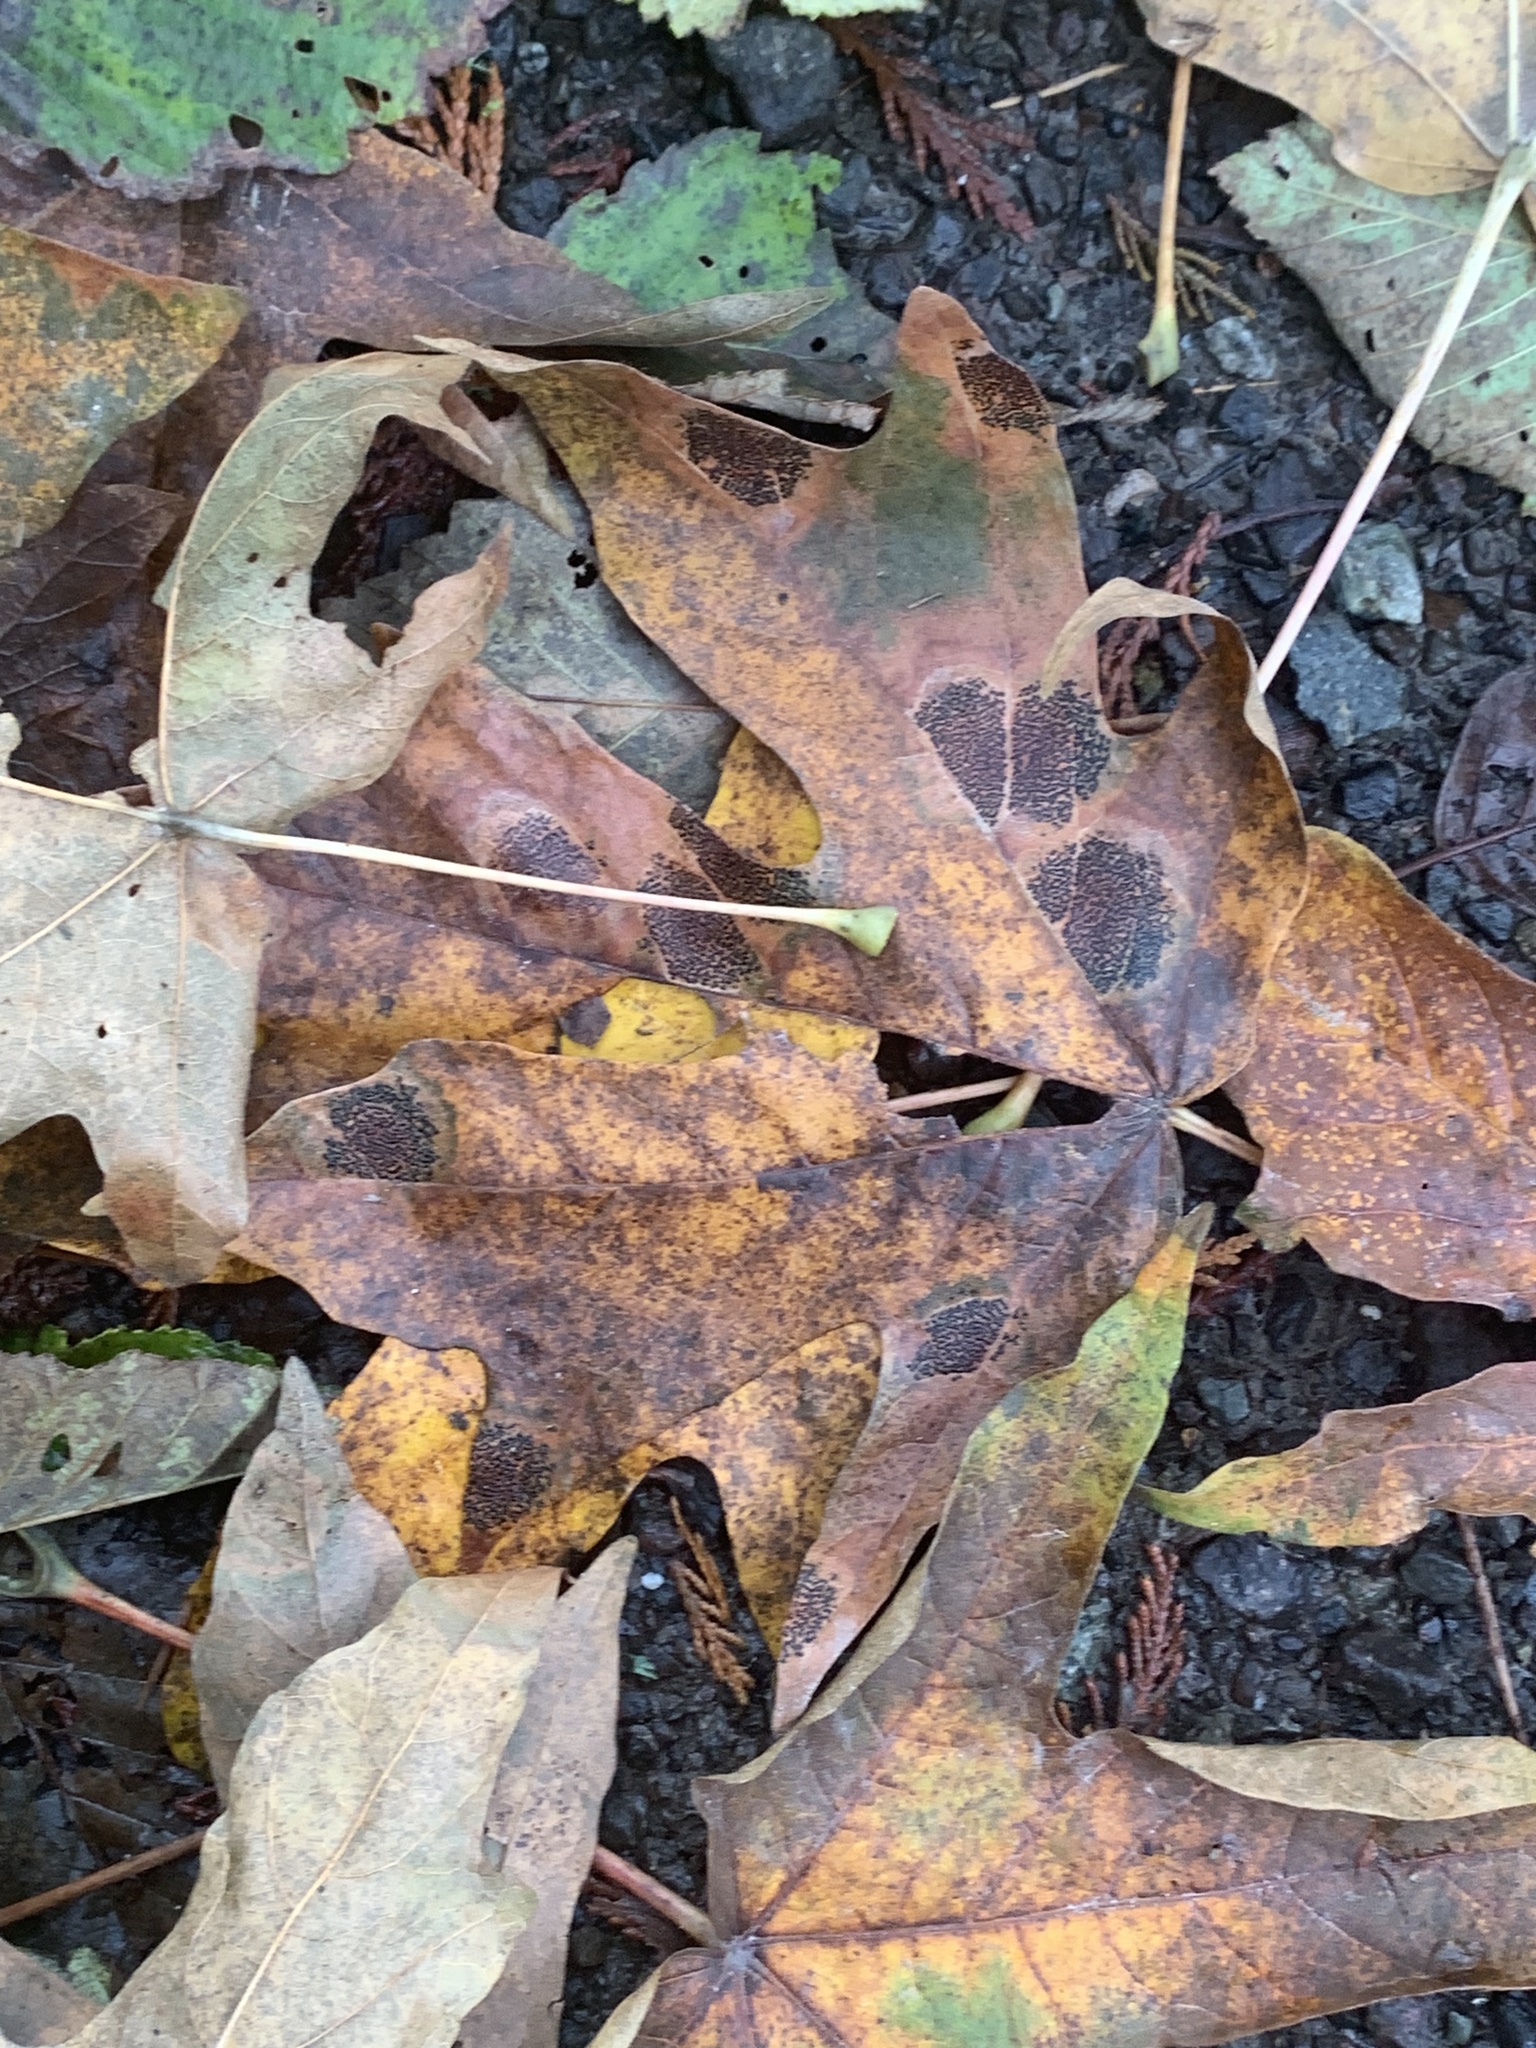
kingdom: Fungi
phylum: Ascomycota
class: Leotiomycetes
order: Rhytismatales
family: Rhytismataceae
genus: Rhytisma
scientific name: Rhytisma punctatum
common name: Speckled tar spot
